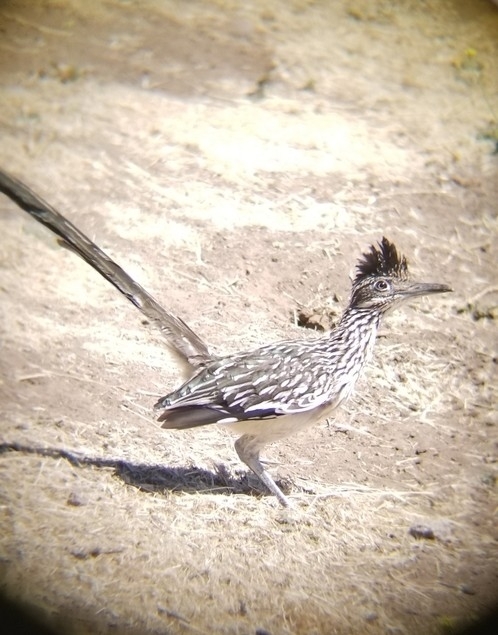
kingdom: Animalia
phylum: Chordata
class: Aves
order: Cuculiformes
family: Cuculidae
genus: Geococcyx
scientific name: Geococcyx californianus
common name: Greater roadrunner
